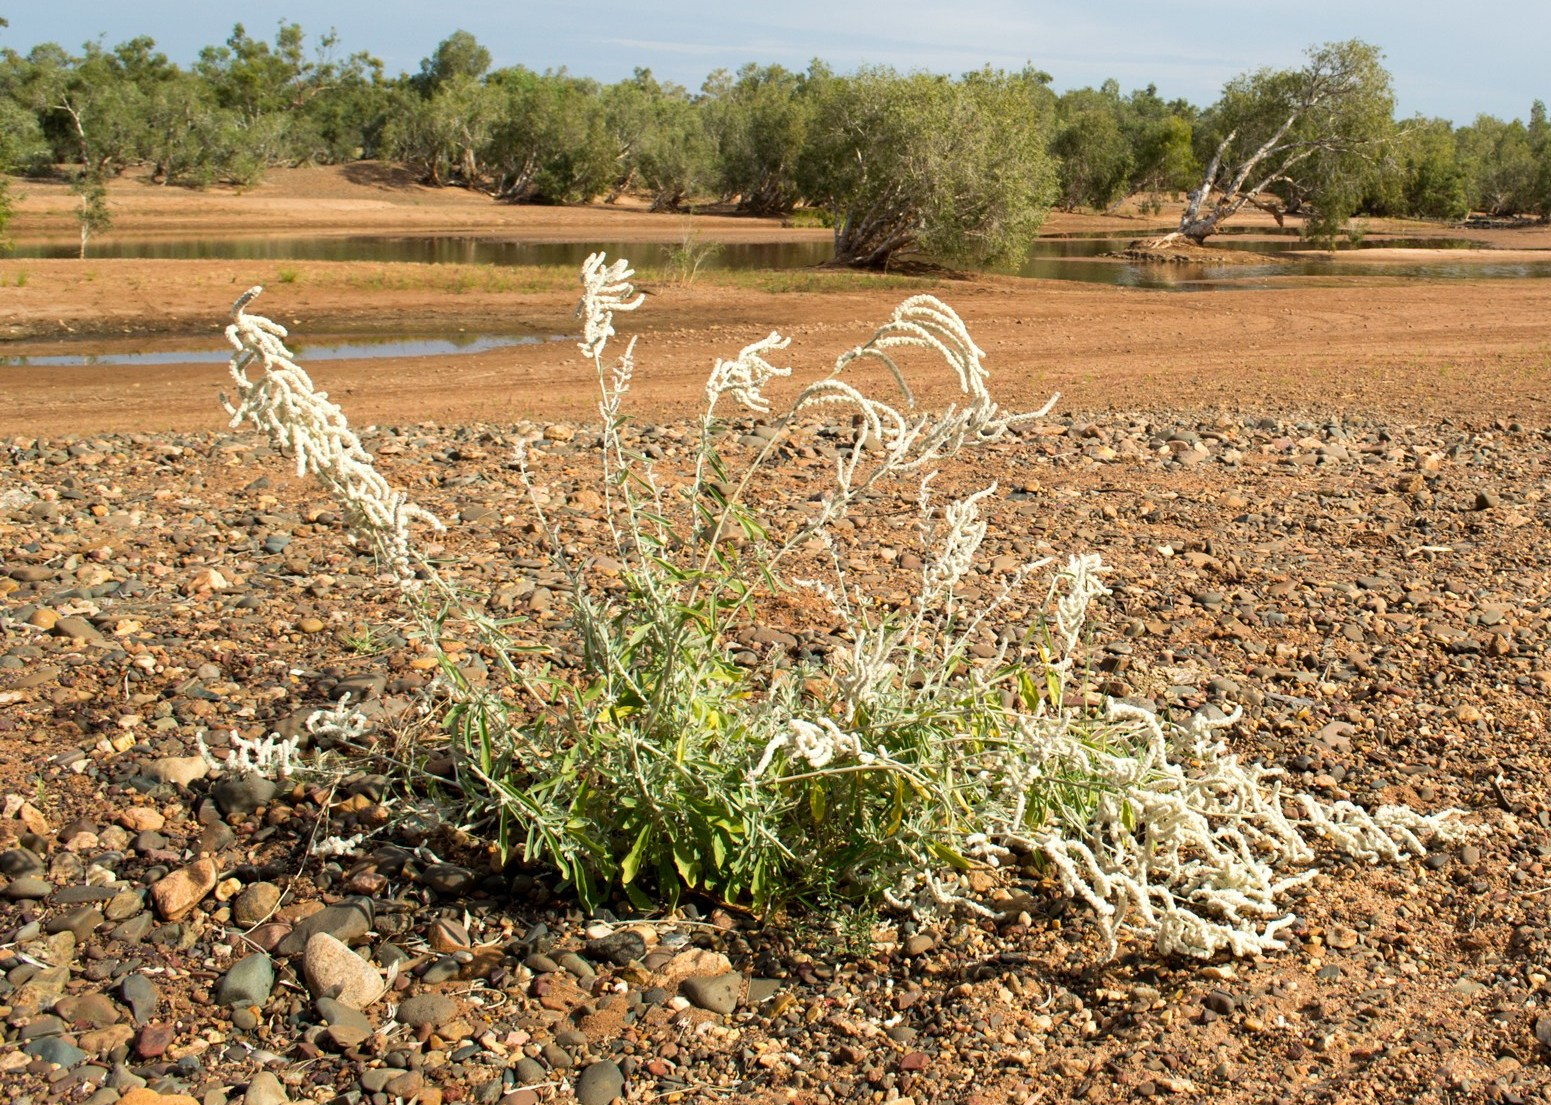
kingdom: Plantae
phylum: Tracheophyta
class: Magnoliopsida
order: Caryophyllales
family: Amaranthaceae
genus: Aerva
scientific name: Aerva javanica
